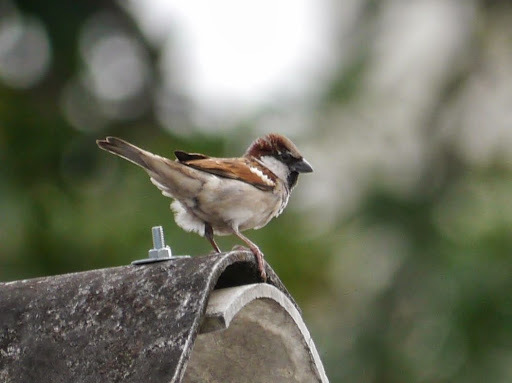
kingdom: Animalia
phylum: Chordata
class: Aves
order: Passeriformes
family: Passeridae
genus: Passer
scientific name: Passer domesticus
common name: House sparrow
